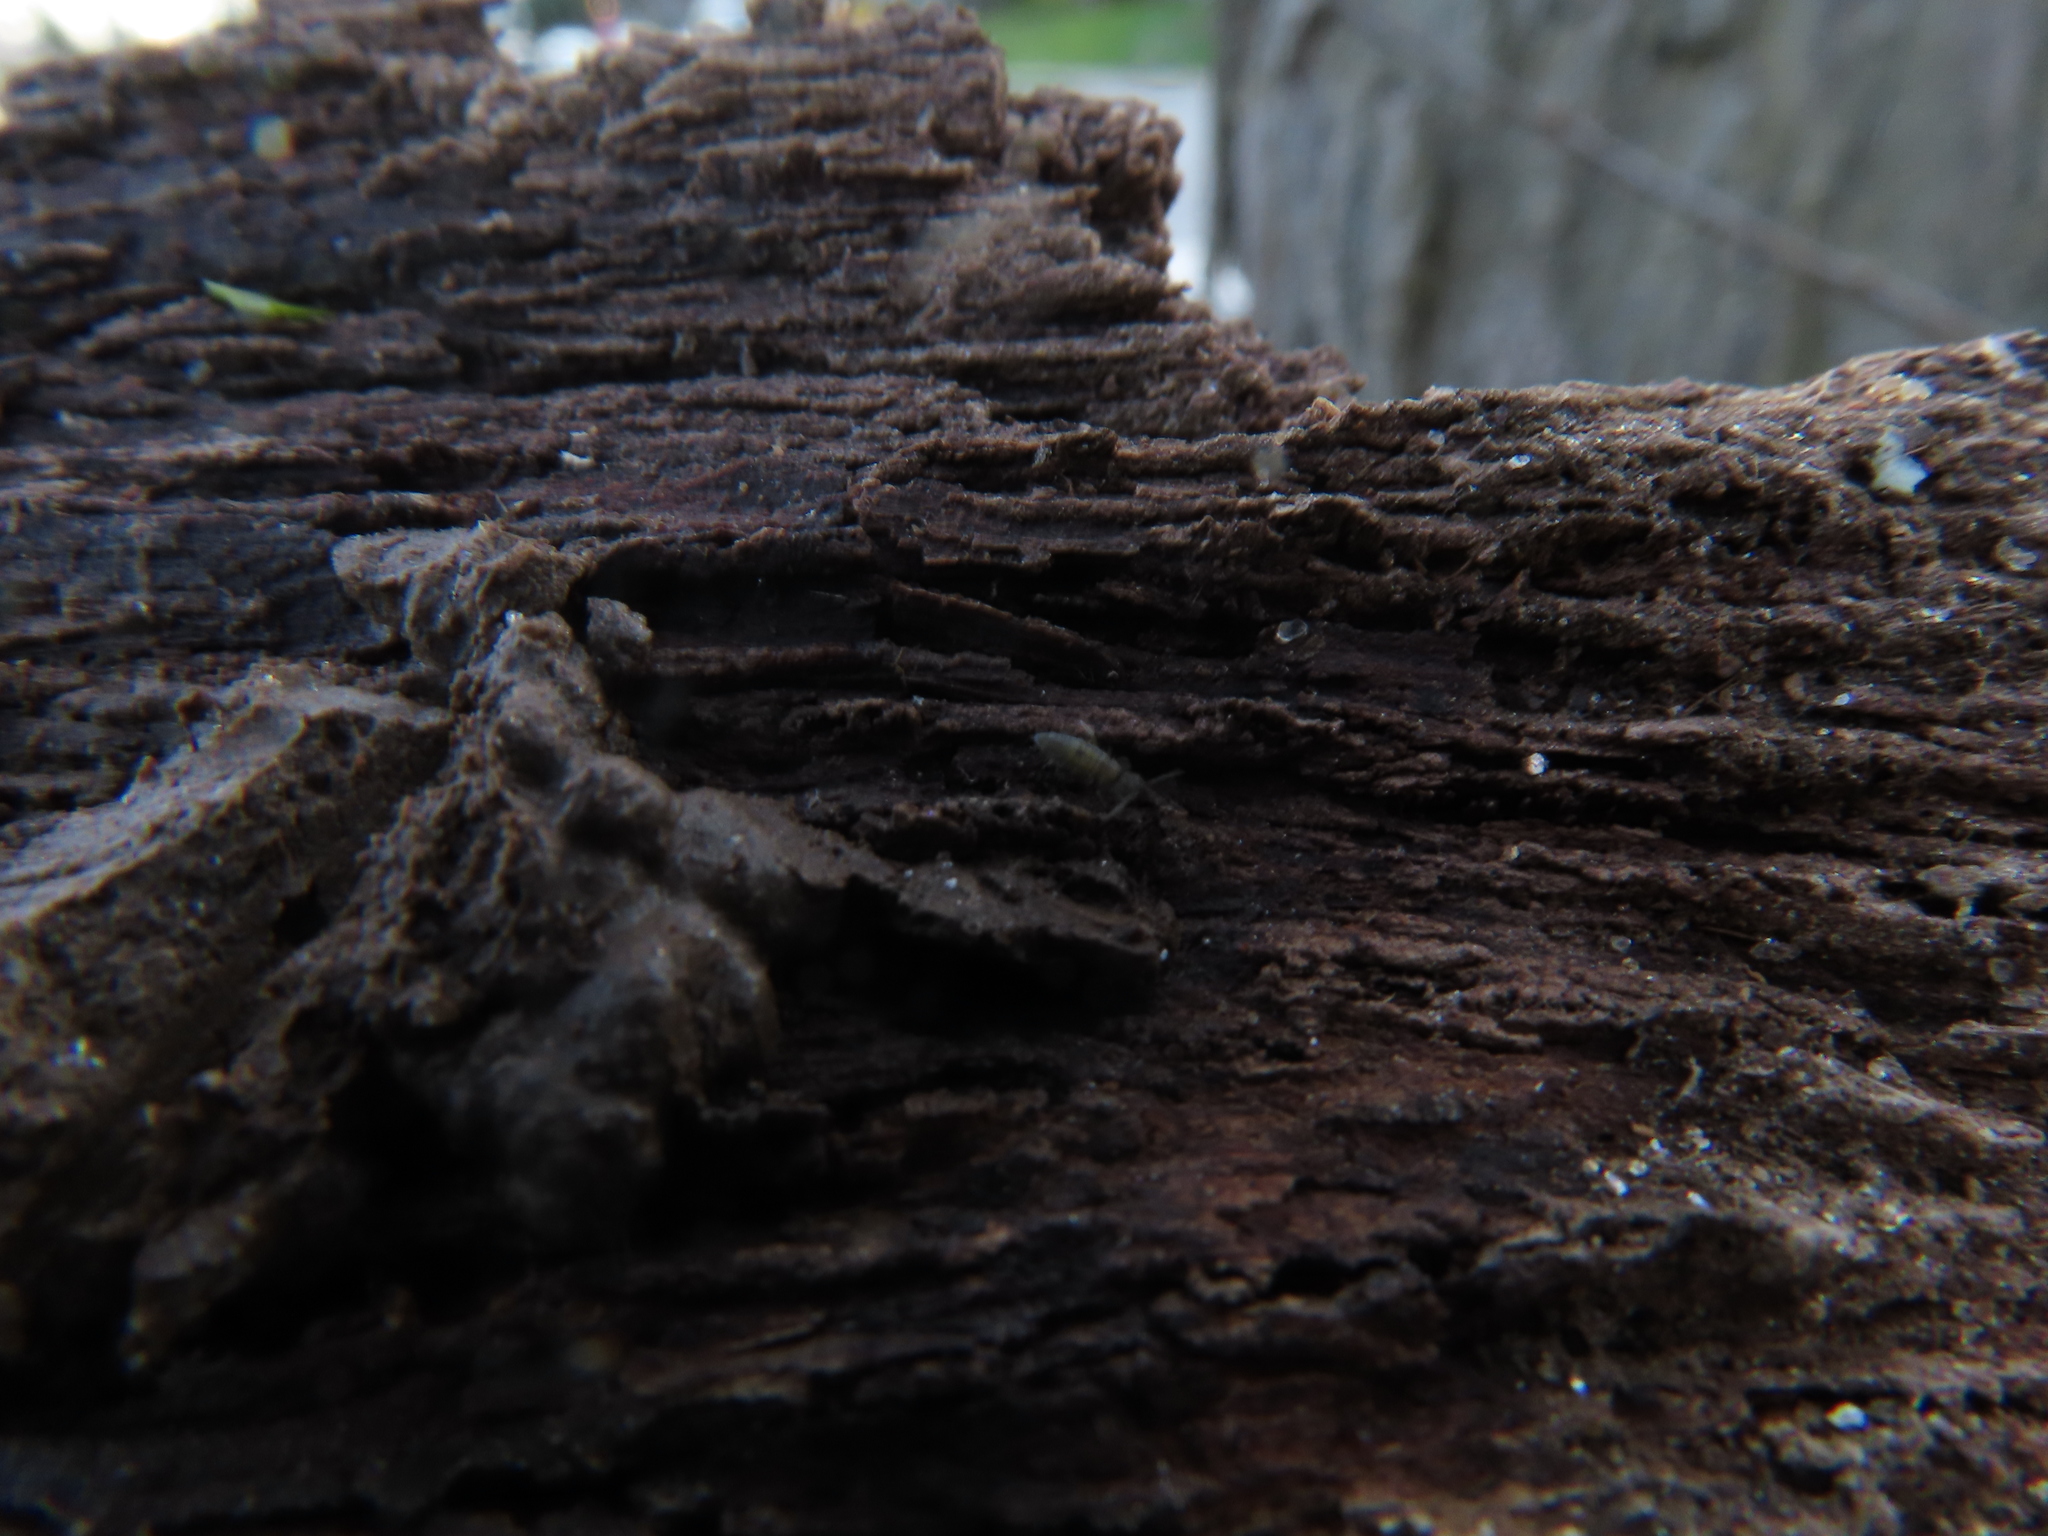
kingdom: Animalia
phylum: Arthropoda
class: Collembola
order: Entomobryomorpha
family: Entomobryidae
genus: Entomobrya
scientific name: Entomobrya unostrigata
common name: Springtail
